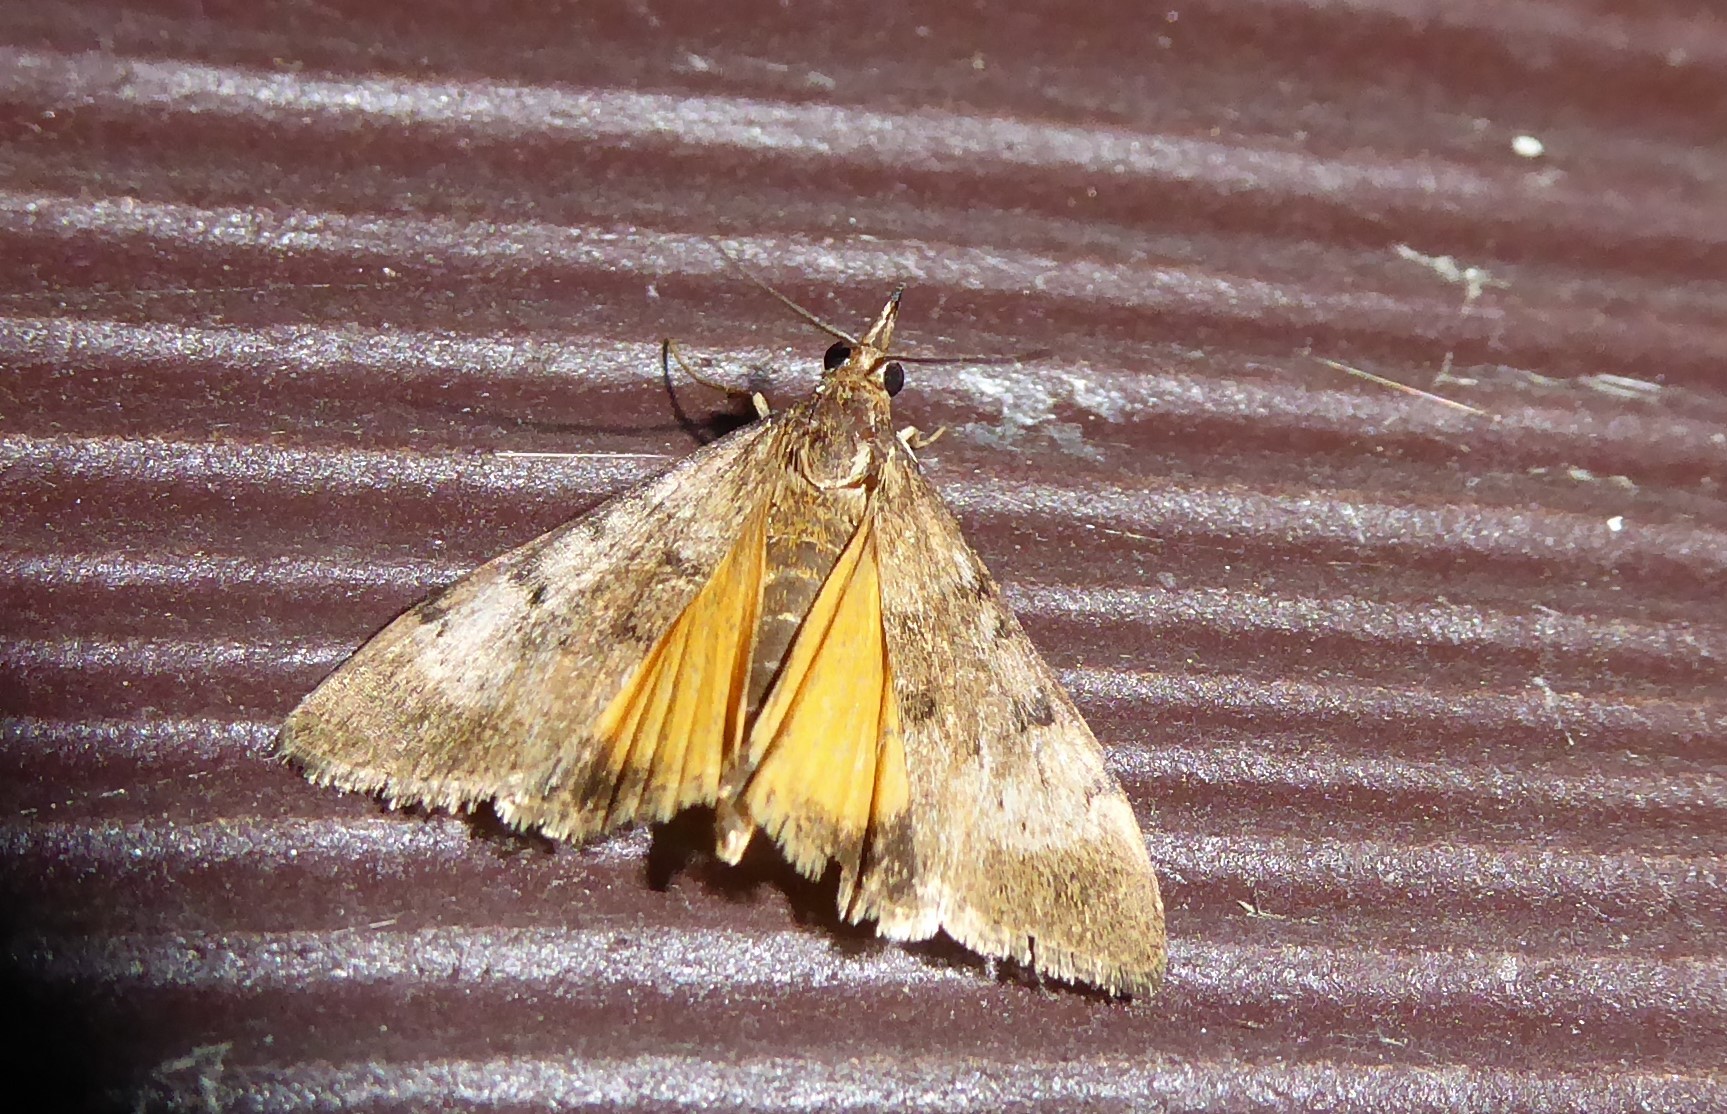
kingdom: Animalia
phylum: Arthropoda
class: Insecta
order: Lepidoptera
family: Crambidae
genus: Uresiphita
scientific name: Uresiphita
